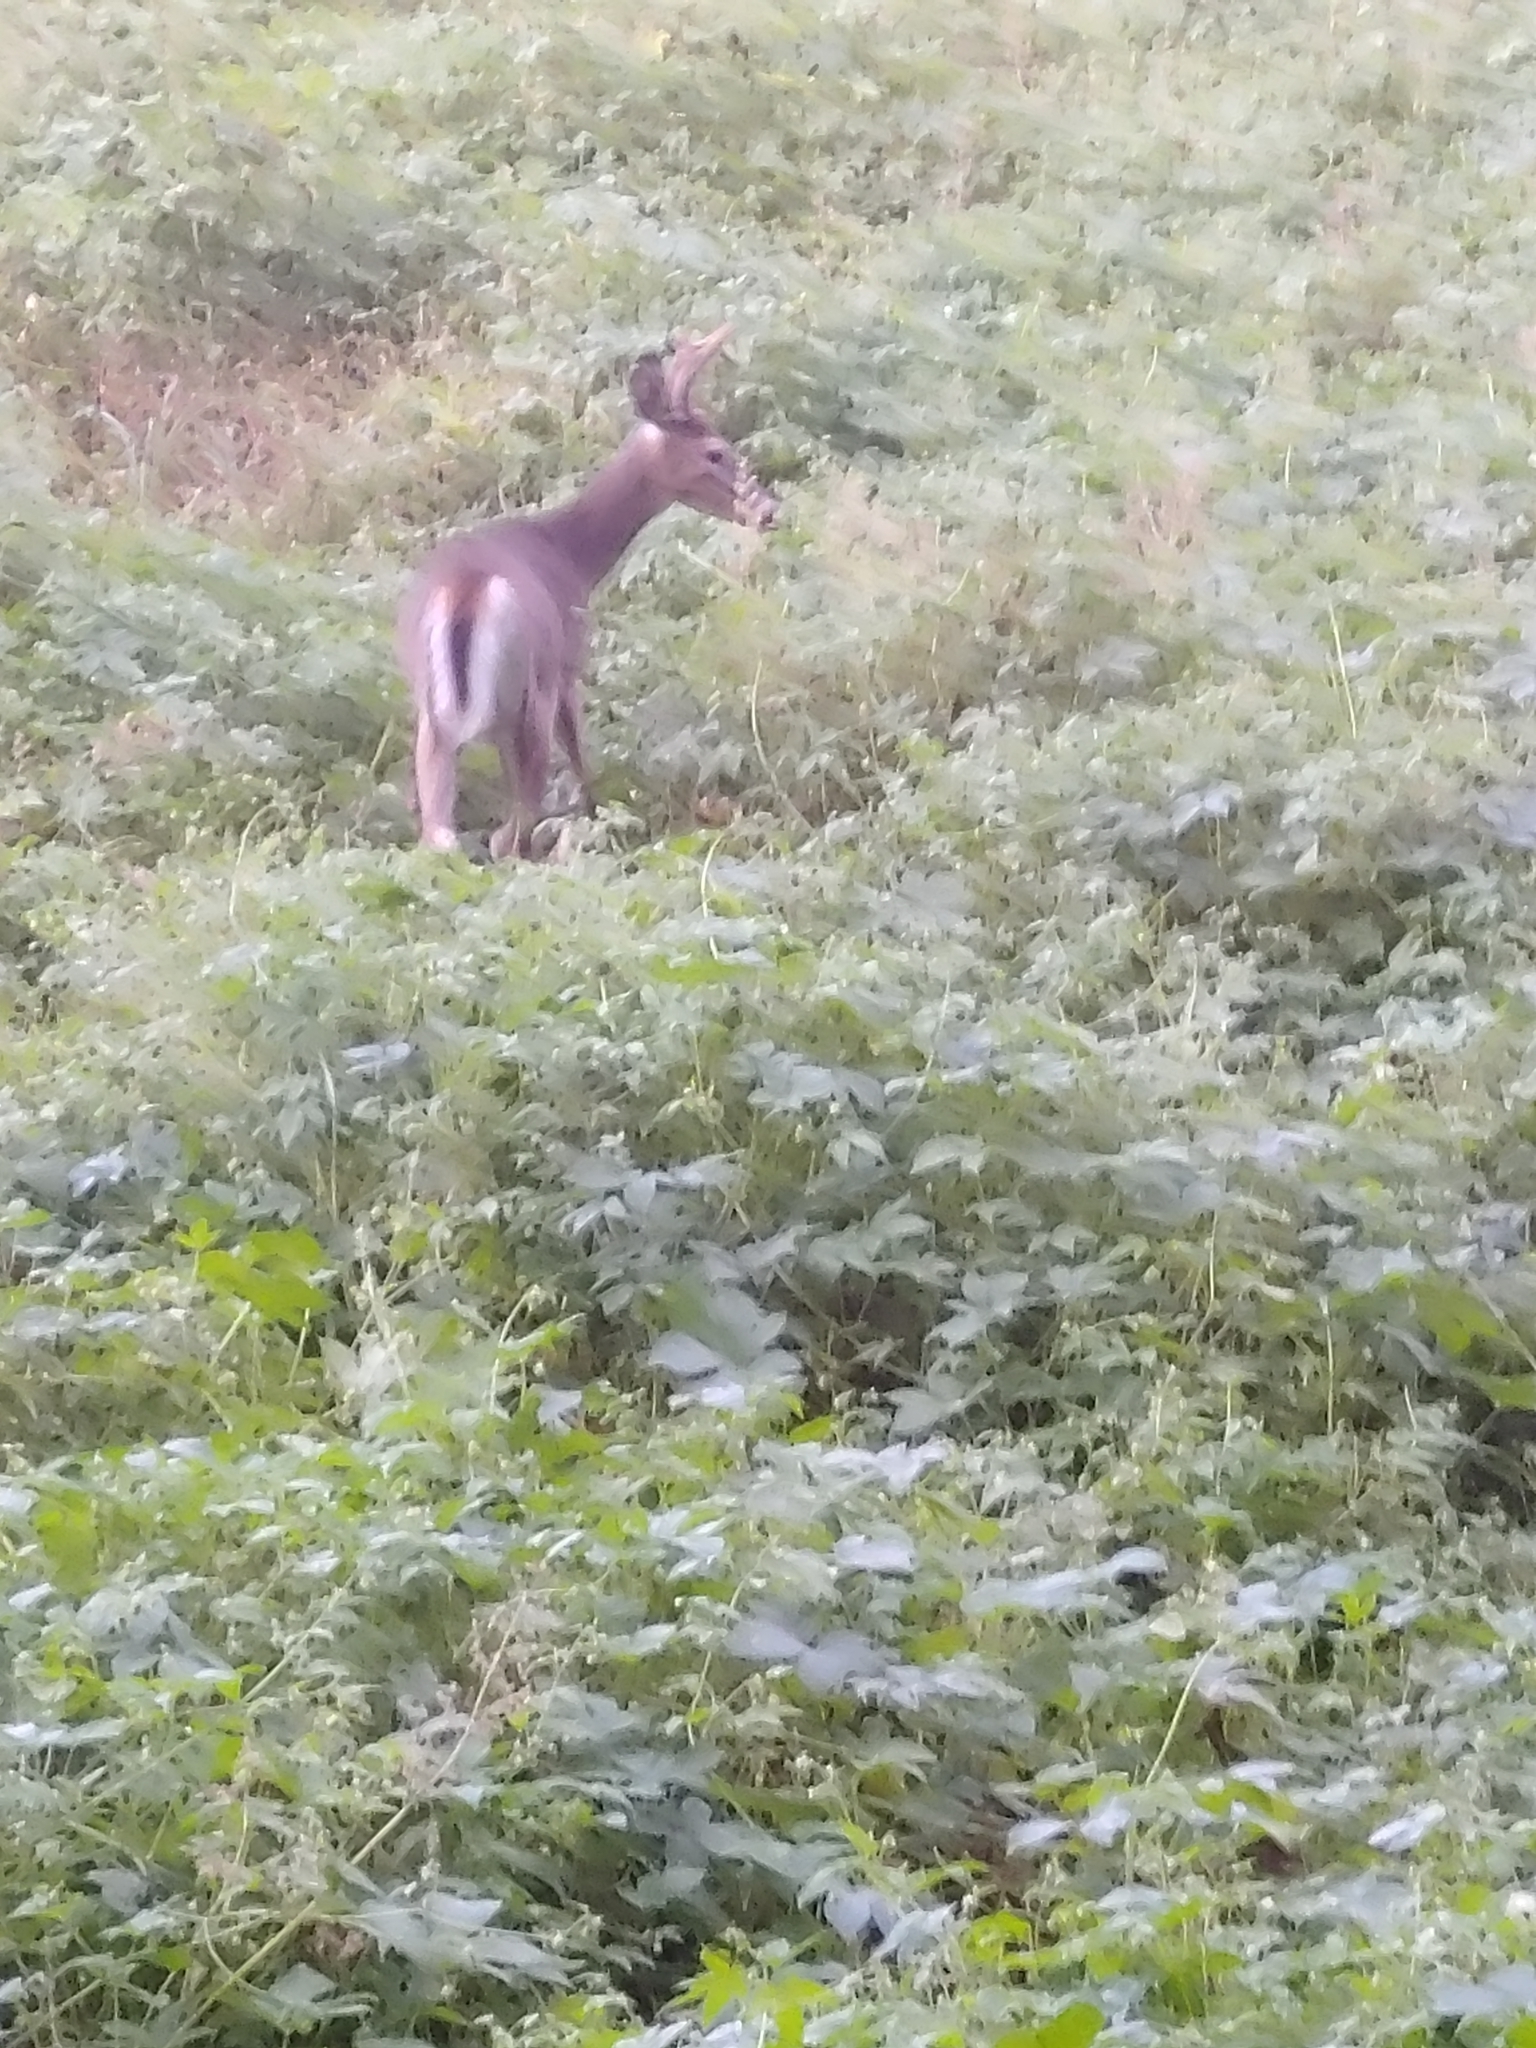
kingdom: Animalia
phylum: Chordata
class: Mammalia
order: Artiodactyla
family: Cervidae
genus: Odocoileus
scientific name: Odocoileus virginianus
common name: White-tailed deer
